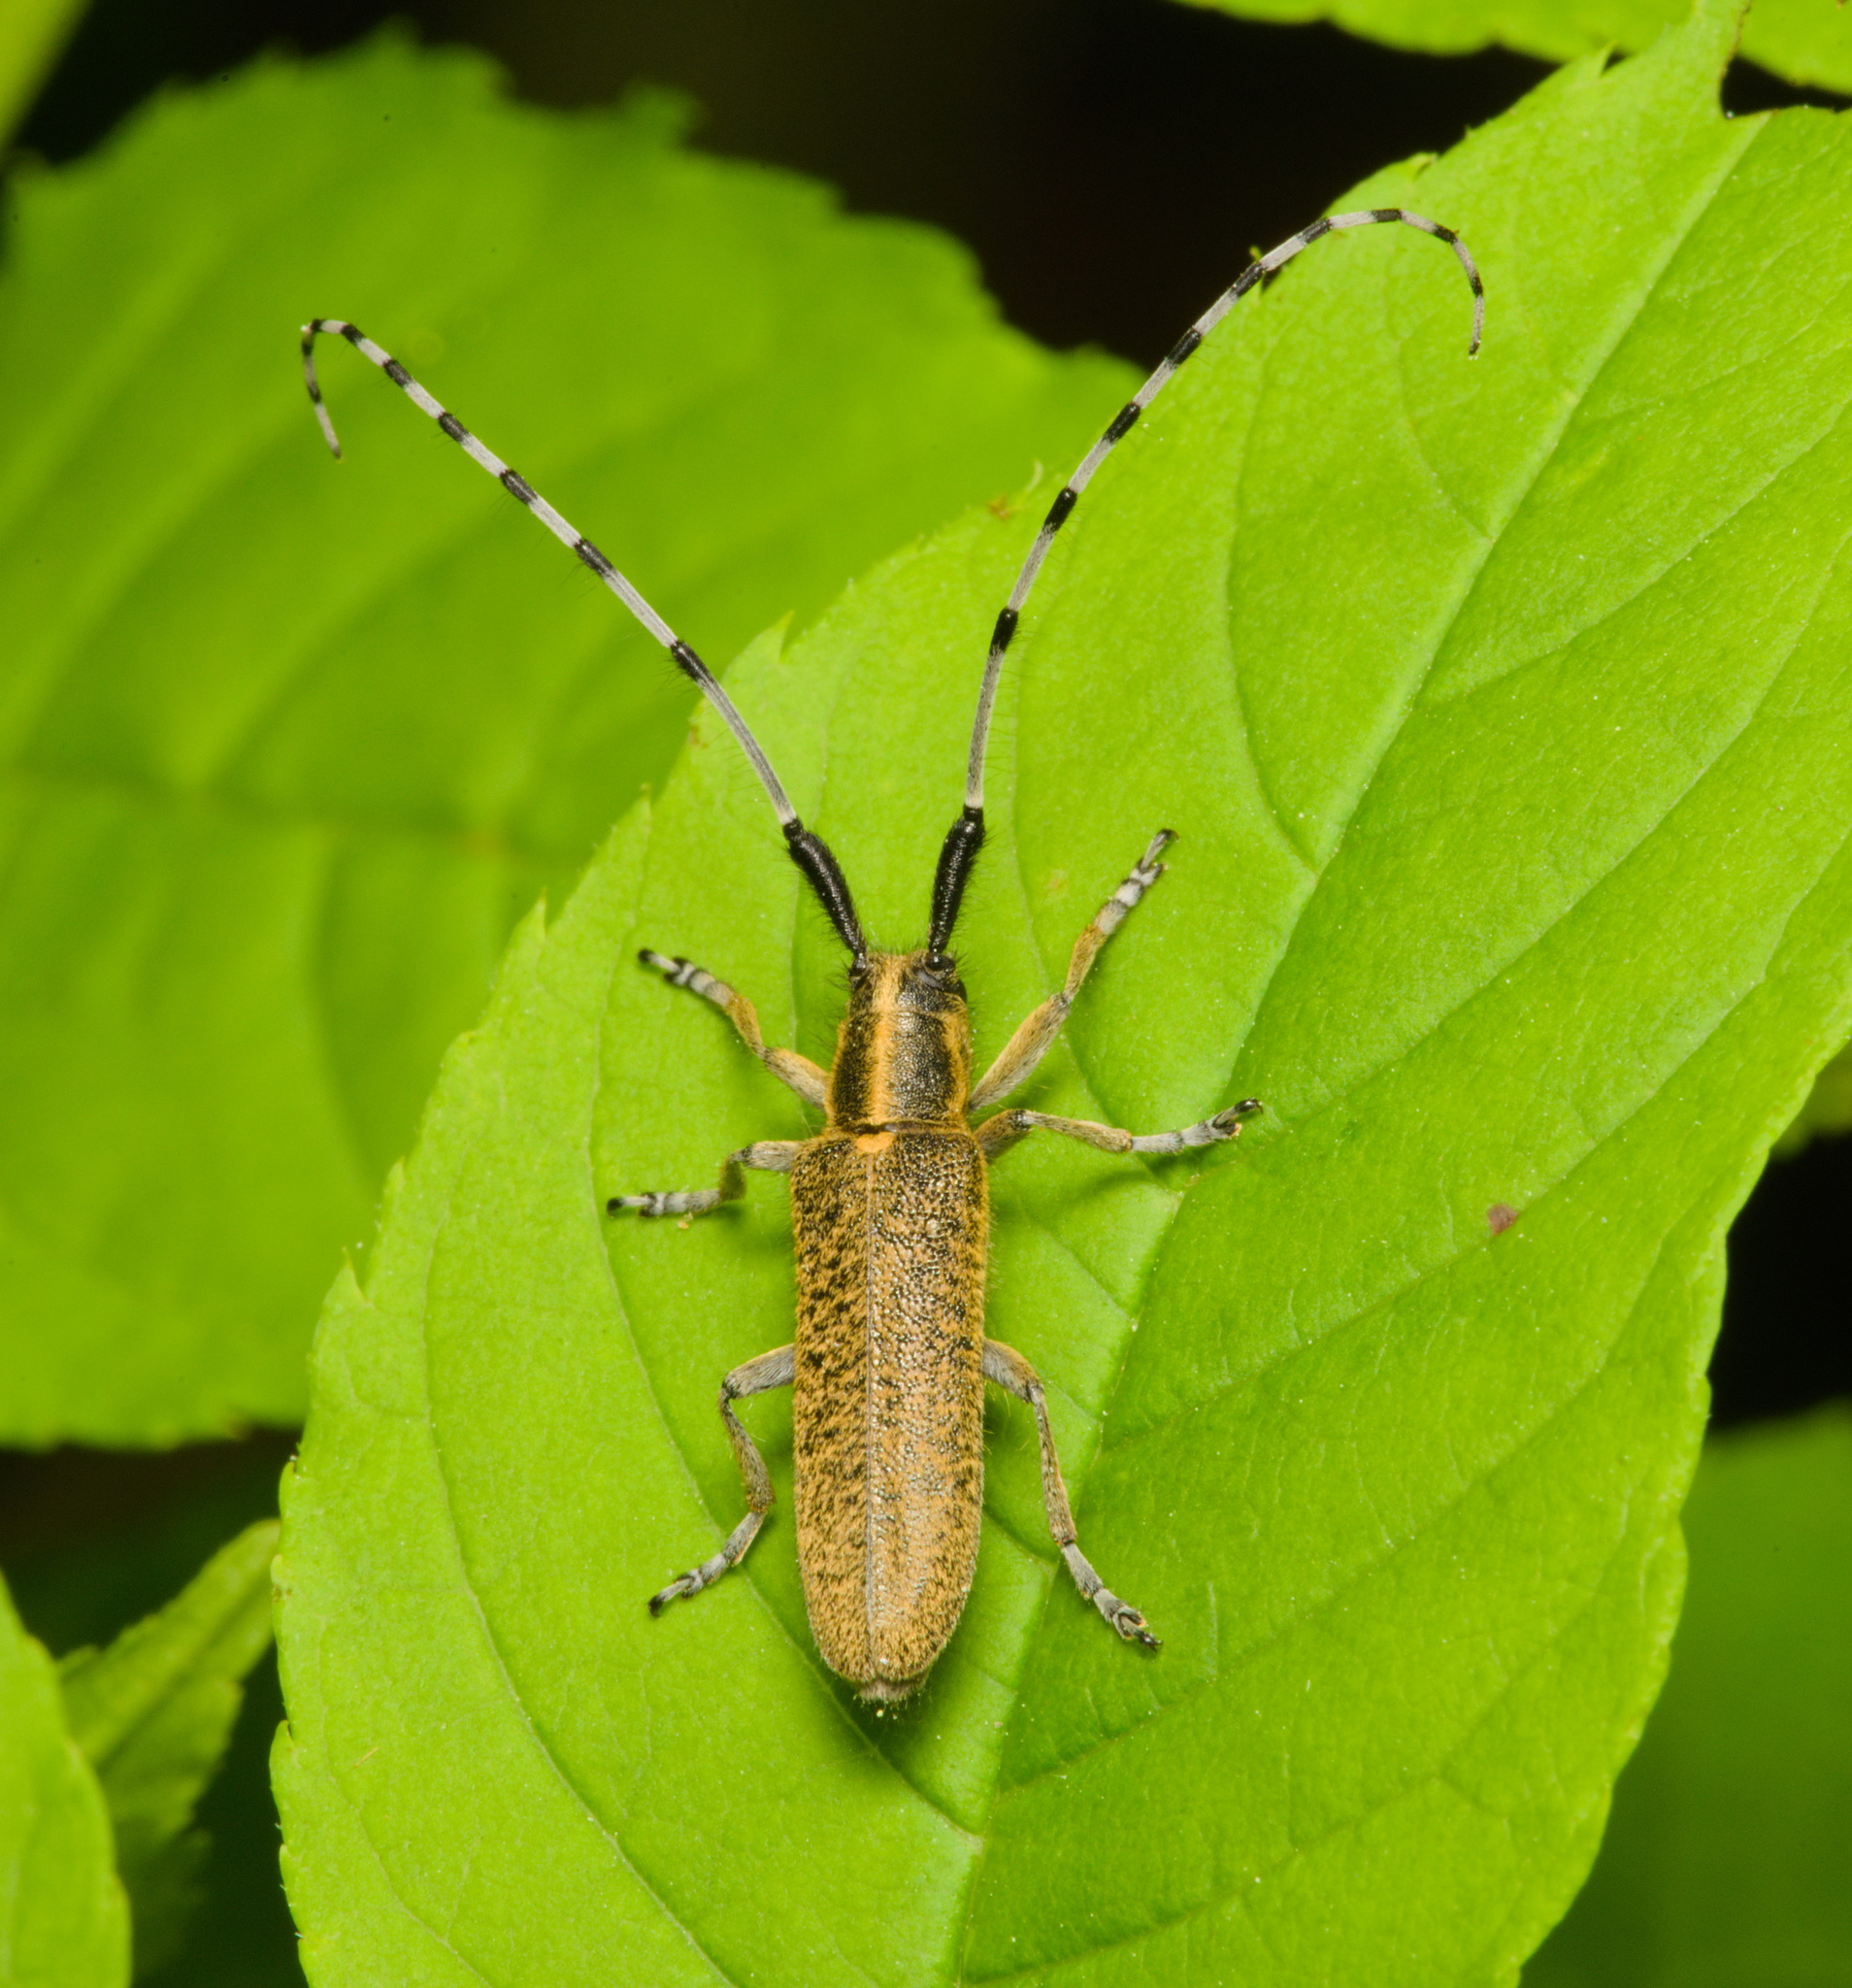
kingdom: Animalia
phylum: Arthropoda
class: Insecta
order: Coleoptera
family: Cerambycidae
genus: Agapanthia
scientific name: Agapanthia villosoviridescens
